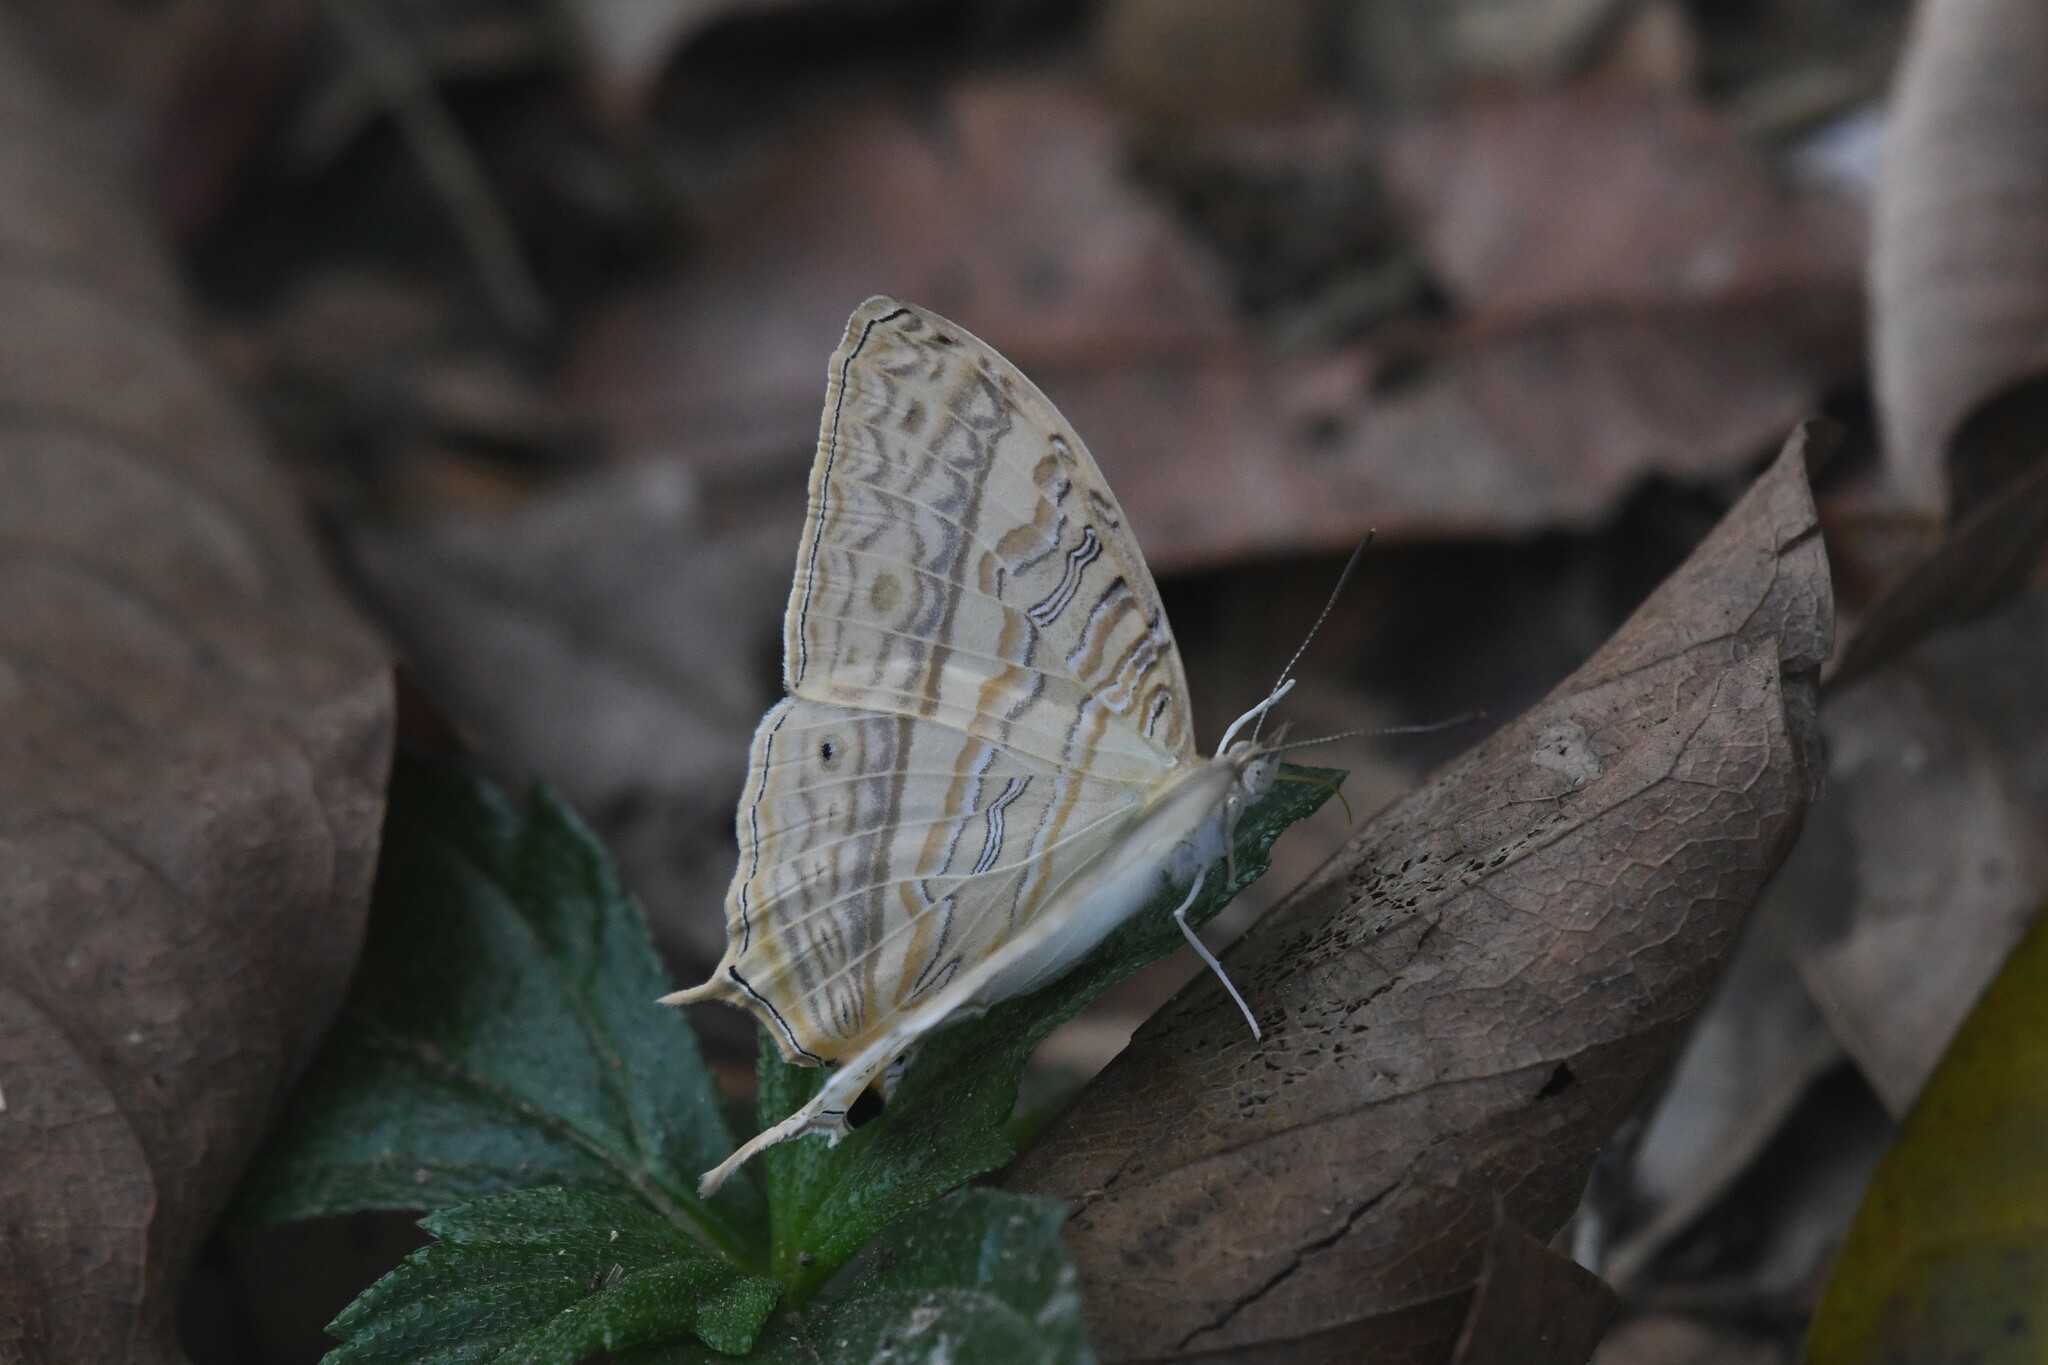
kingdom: Animalia
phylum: Arthropoda
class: Insecta
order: Lepidoptera
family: Nymphalidae
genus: Cyrestis
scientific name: Cyrestis cocles
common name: Marbled map
